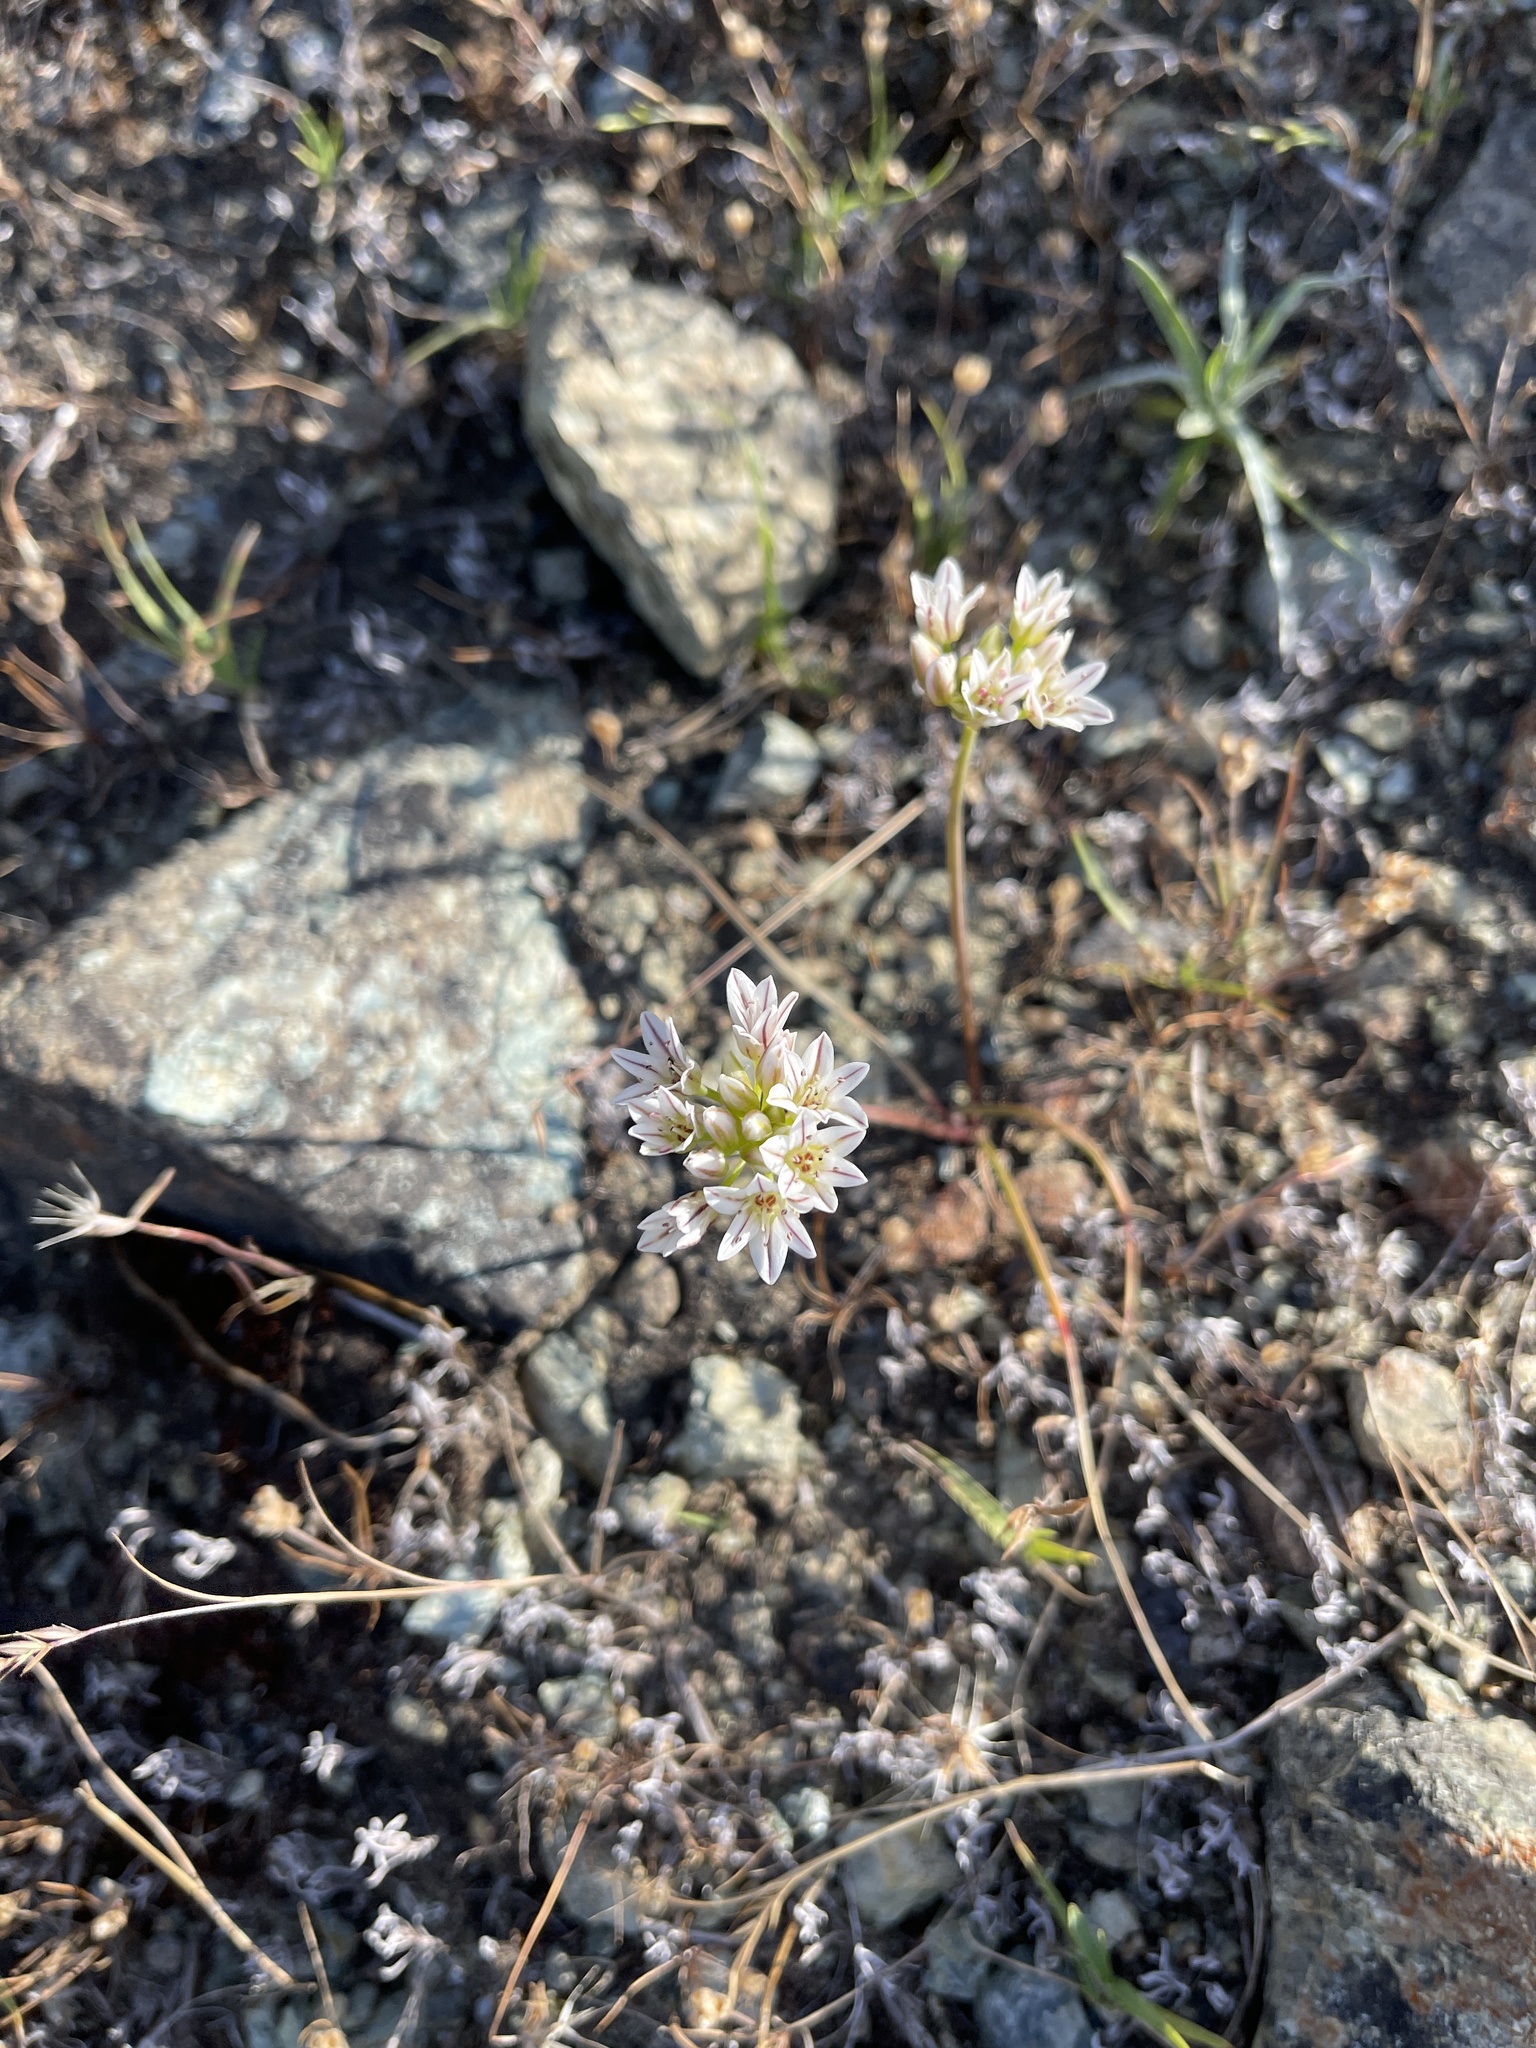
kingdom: Plantae
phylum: Tracheophyta
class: Liliopsida
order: Asparagales
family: Amaryllidaceae
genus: Allium
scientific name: Allium lacunosum
